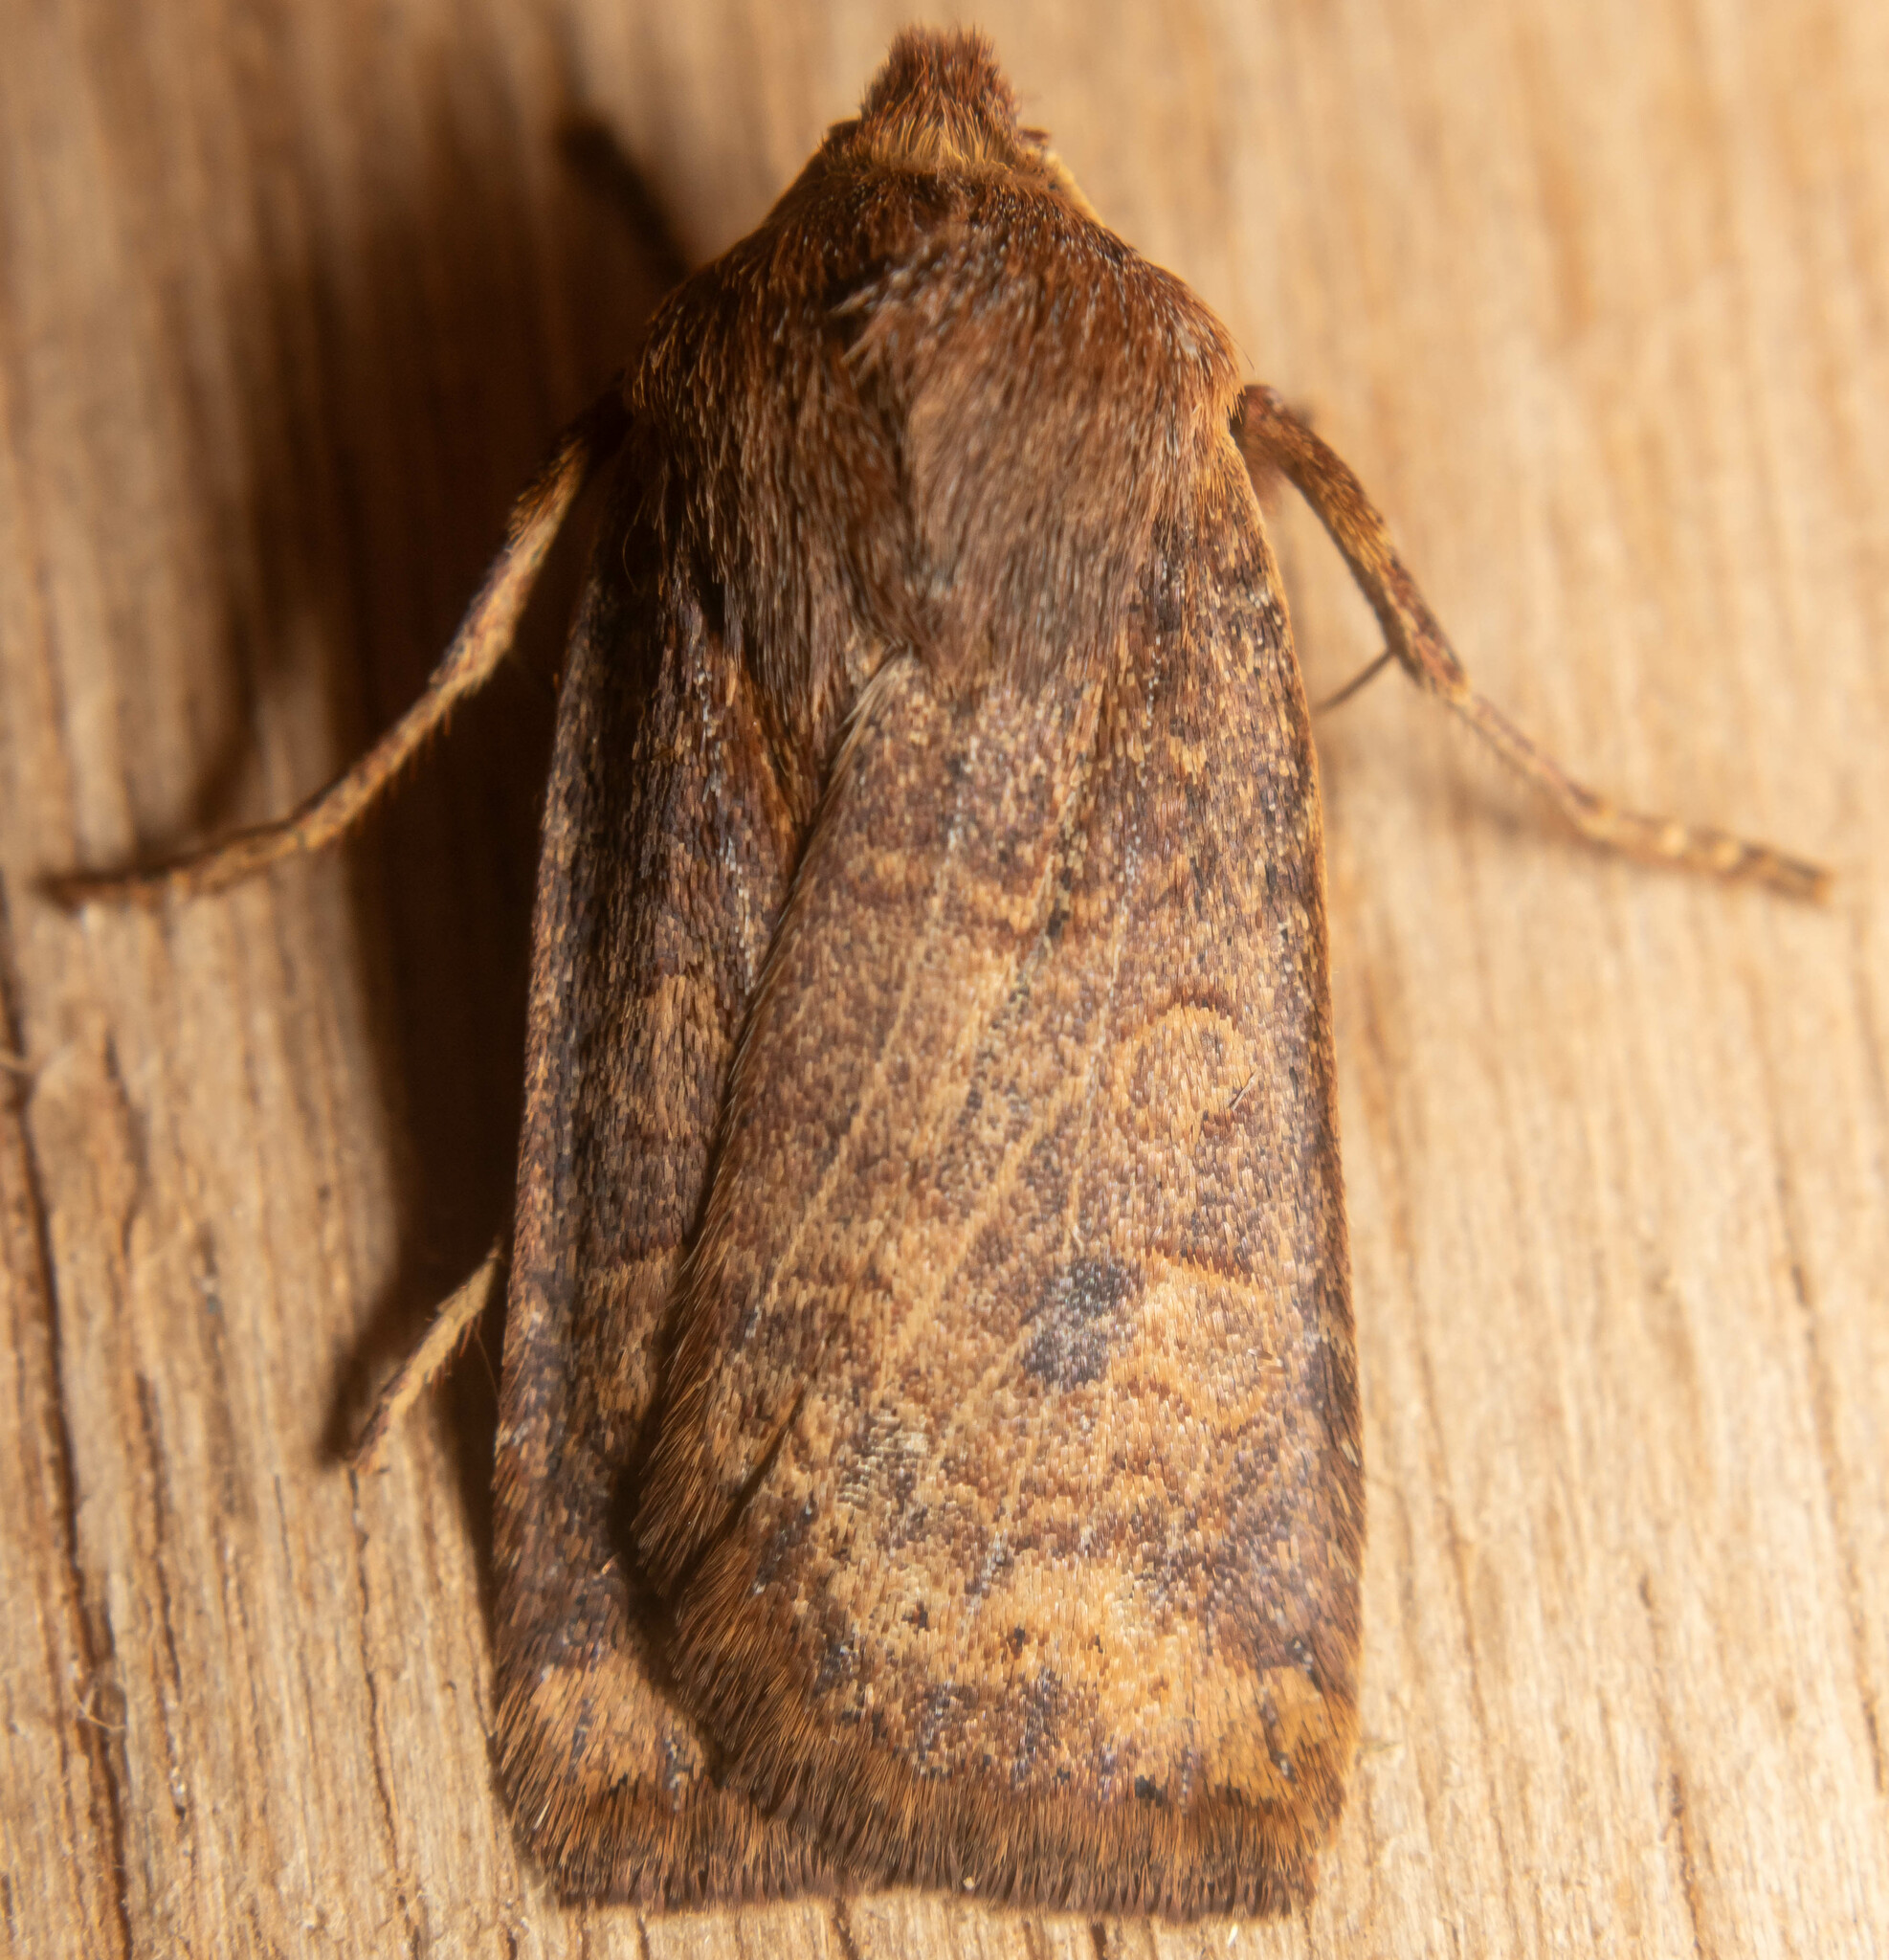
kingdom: Animalia
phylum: Arthropoda
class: Insecta
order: Lepidoptera
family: Noctuidae
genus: Conistra
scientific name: Conistra vaccinii
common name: Chestnut
